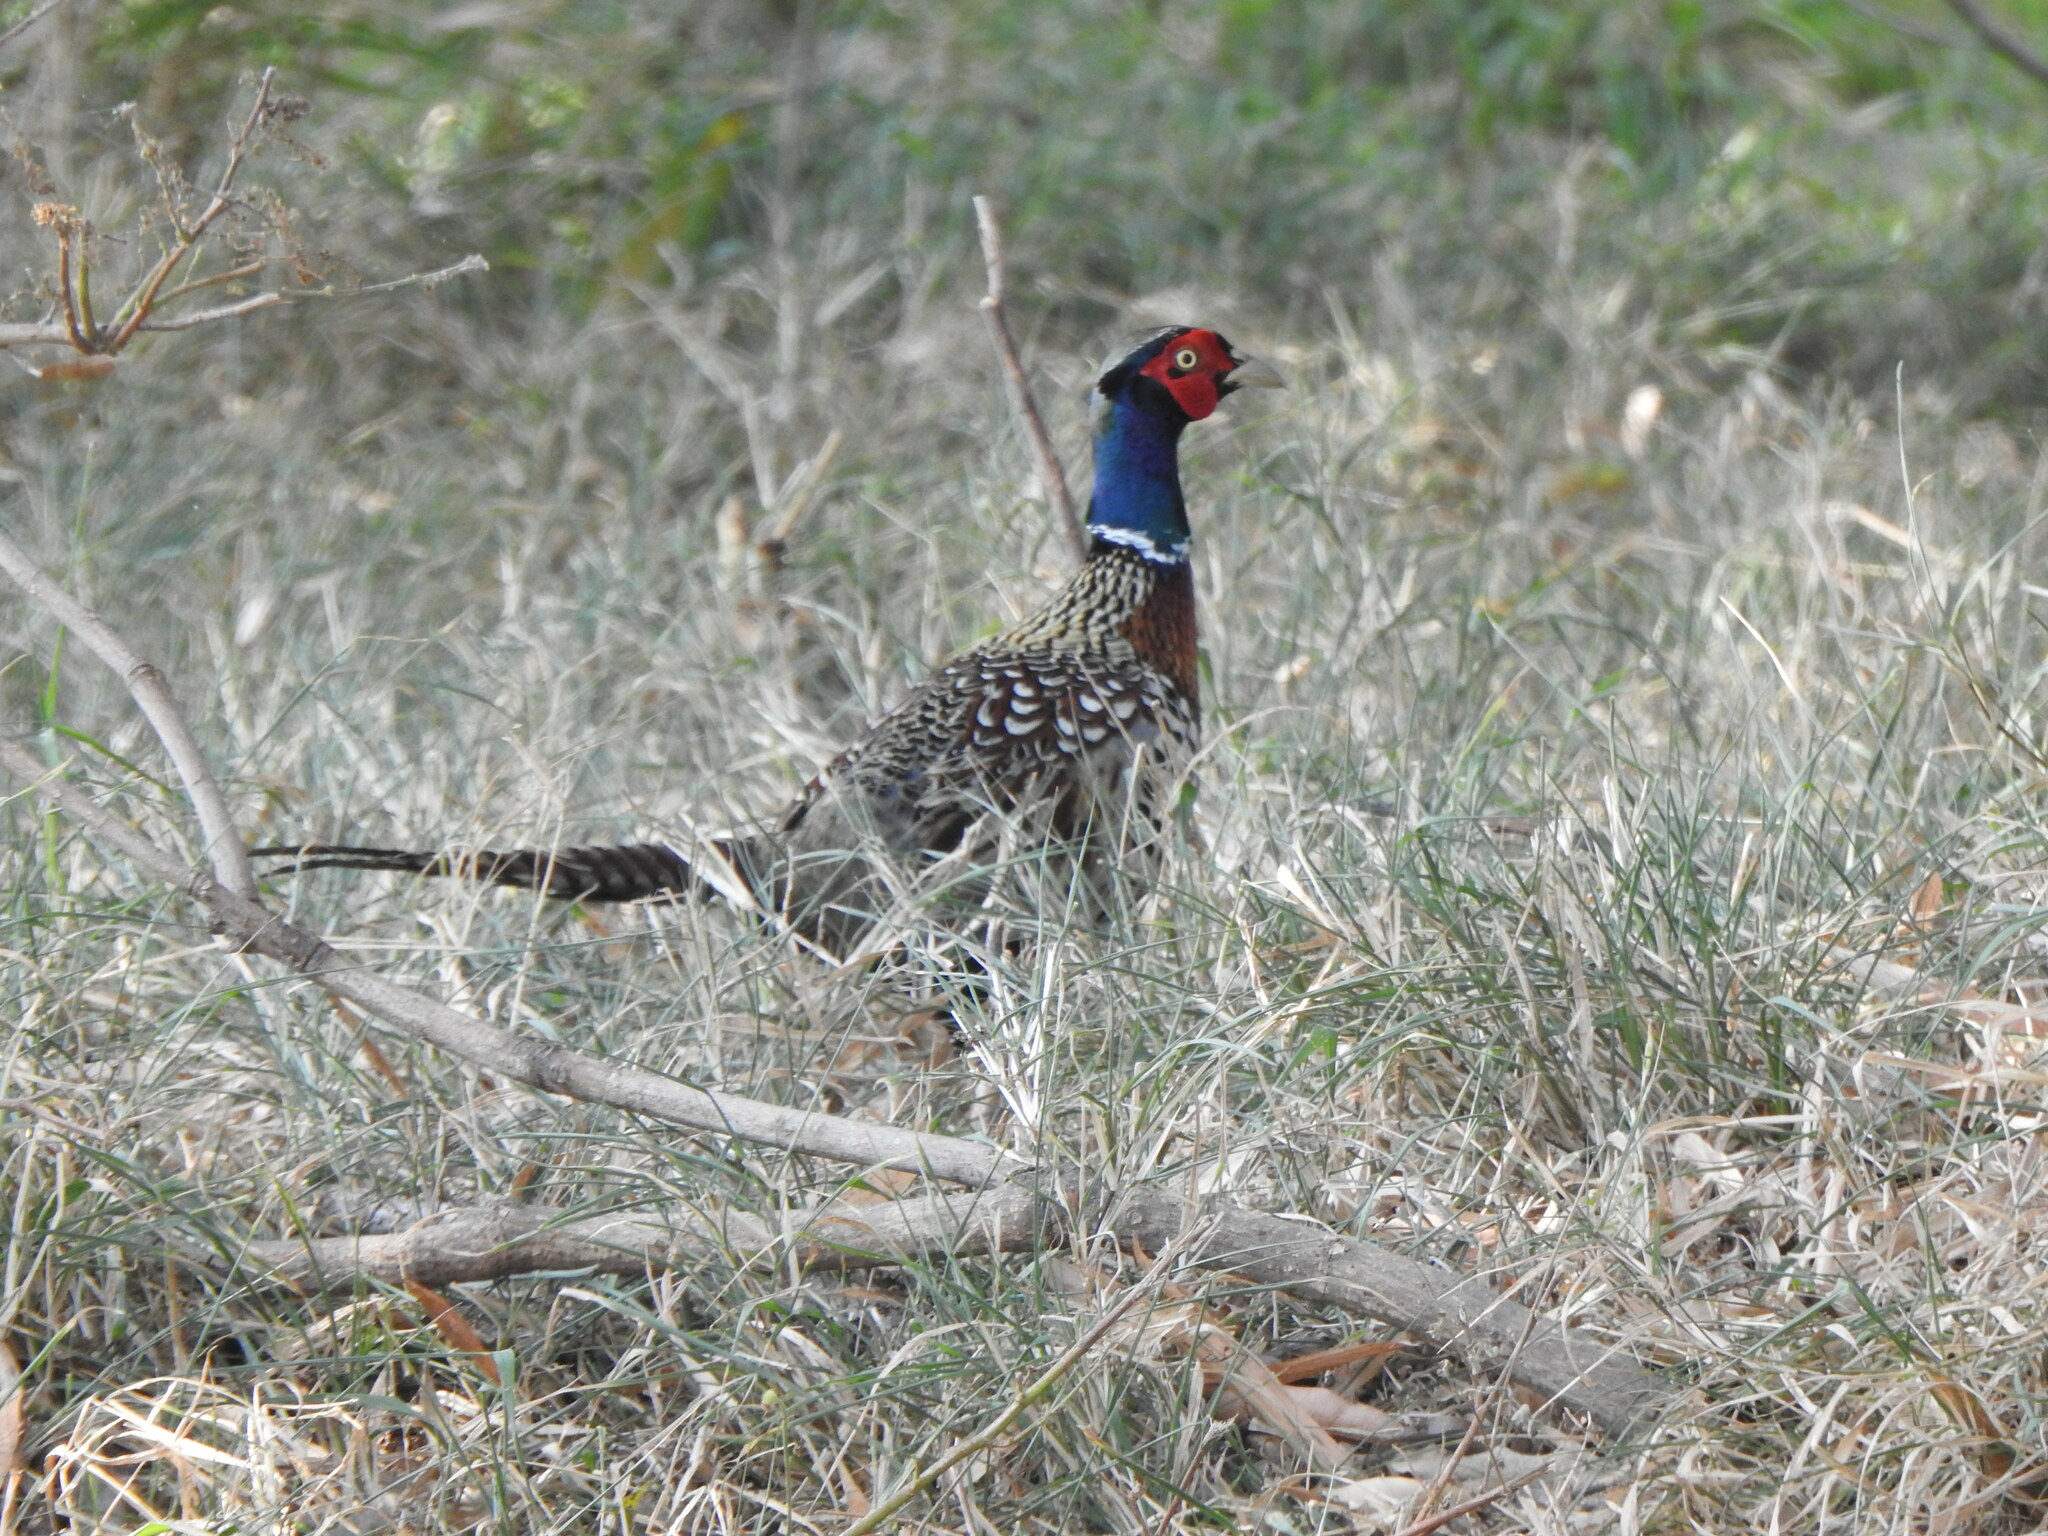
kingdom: Animalia
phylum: Chordata
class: Aves
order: Galliformes
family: Phasianidae
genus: Phasianus
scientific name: Phasianus colchicus
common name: Common pheasant
